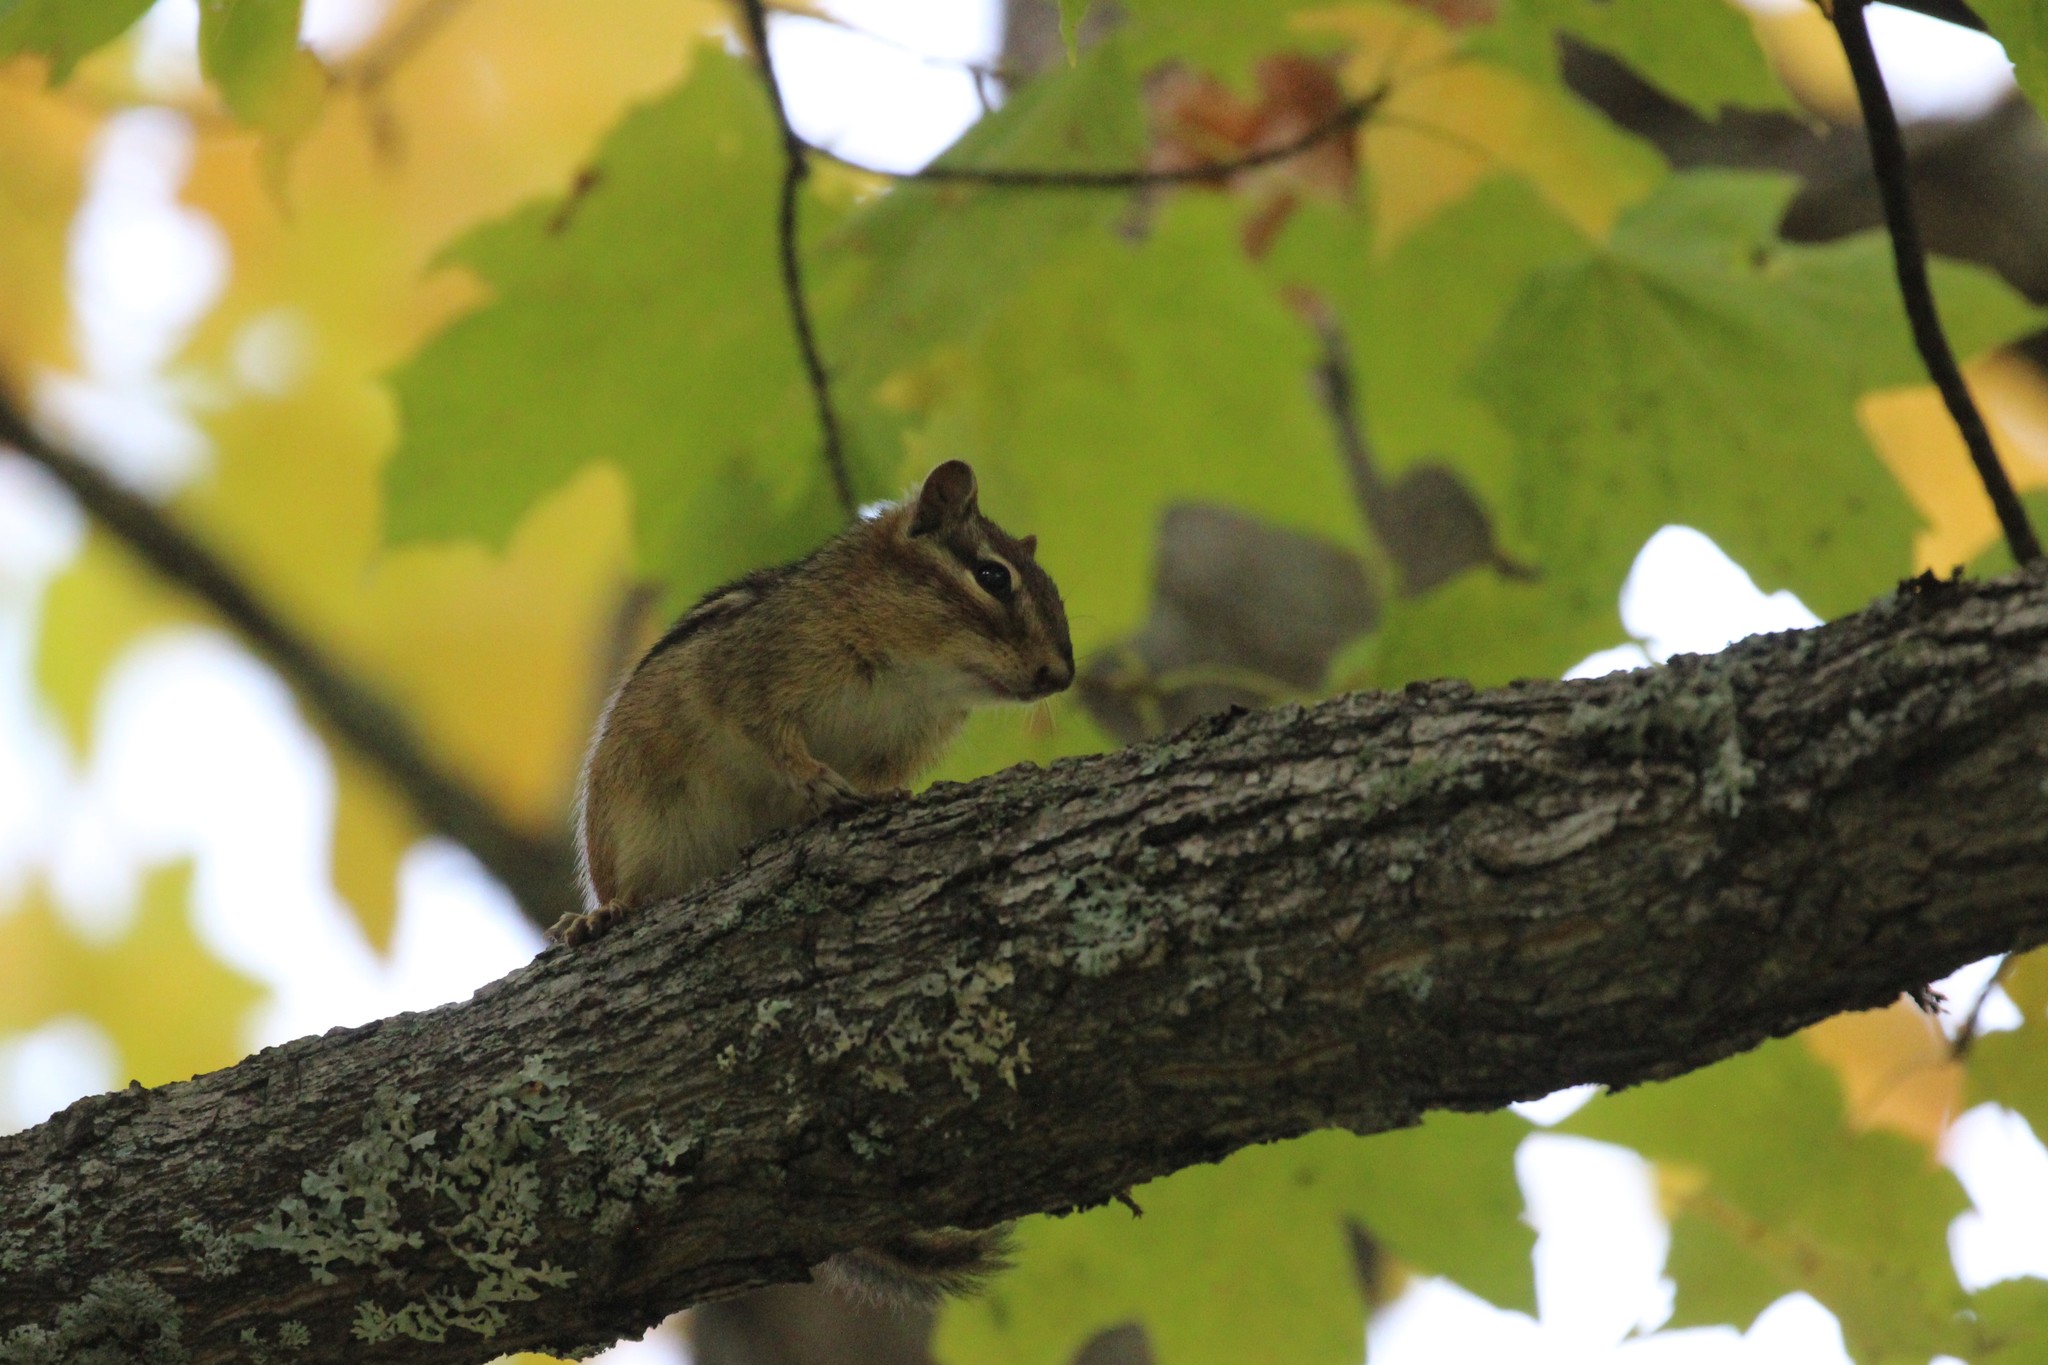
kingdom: Animalia
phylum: Chordata
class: Mammalia
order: Rodentia
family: Sciuridae
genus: Tamias
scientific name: Tamias striatus
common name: Eastern chipmunk
